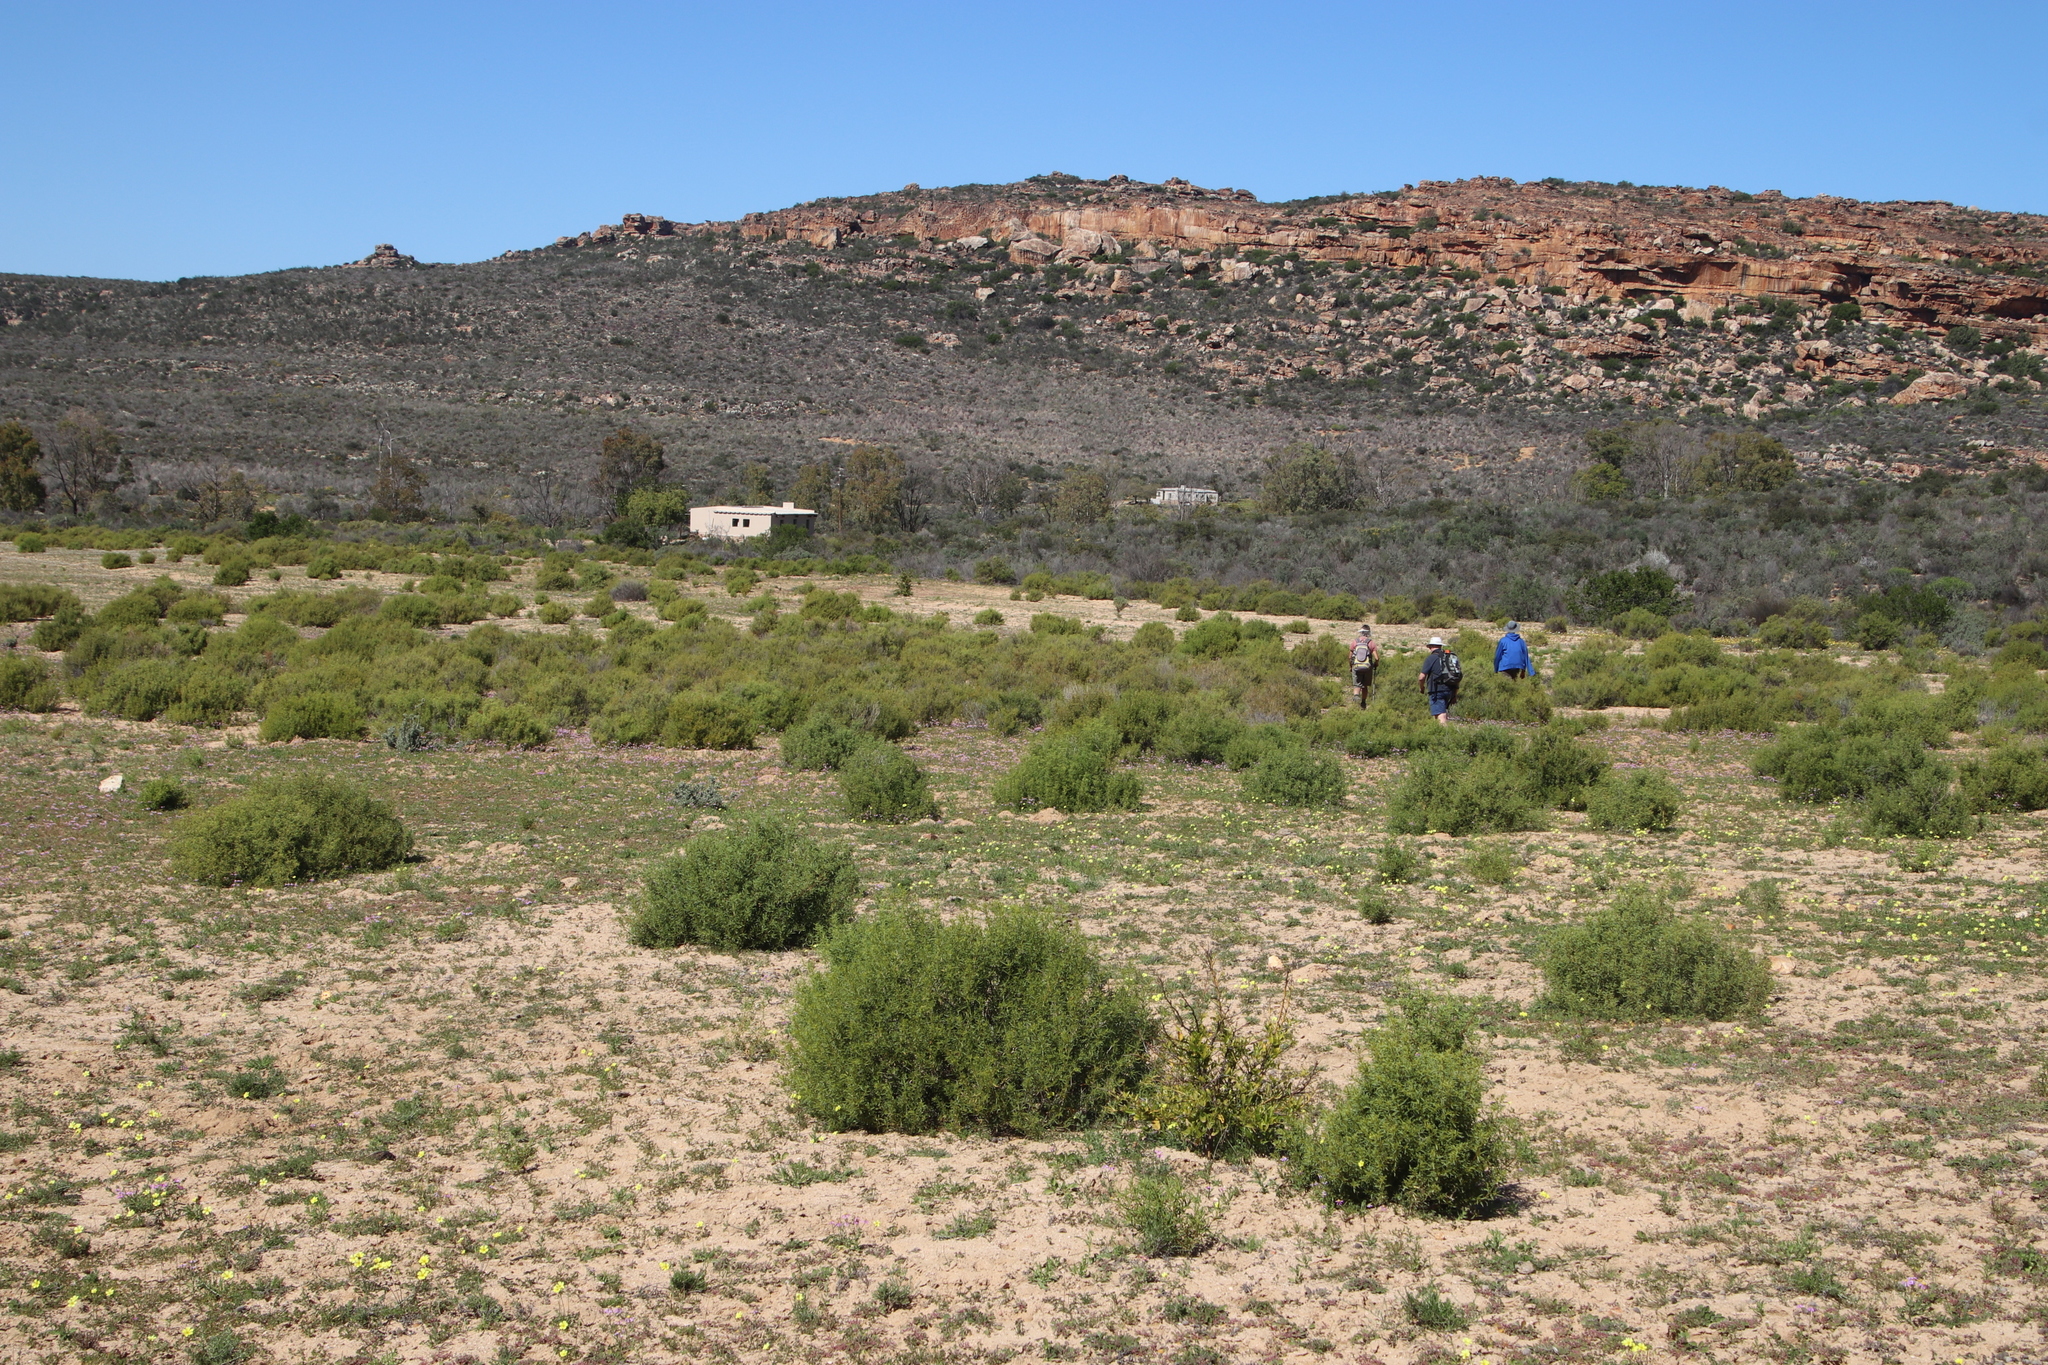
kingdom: Plantae
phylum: Tracheophyta
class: Magnoliopsida
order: Caryophyllales
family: Aizoaceae
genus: Aizoon
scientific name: Aizoon africanum
